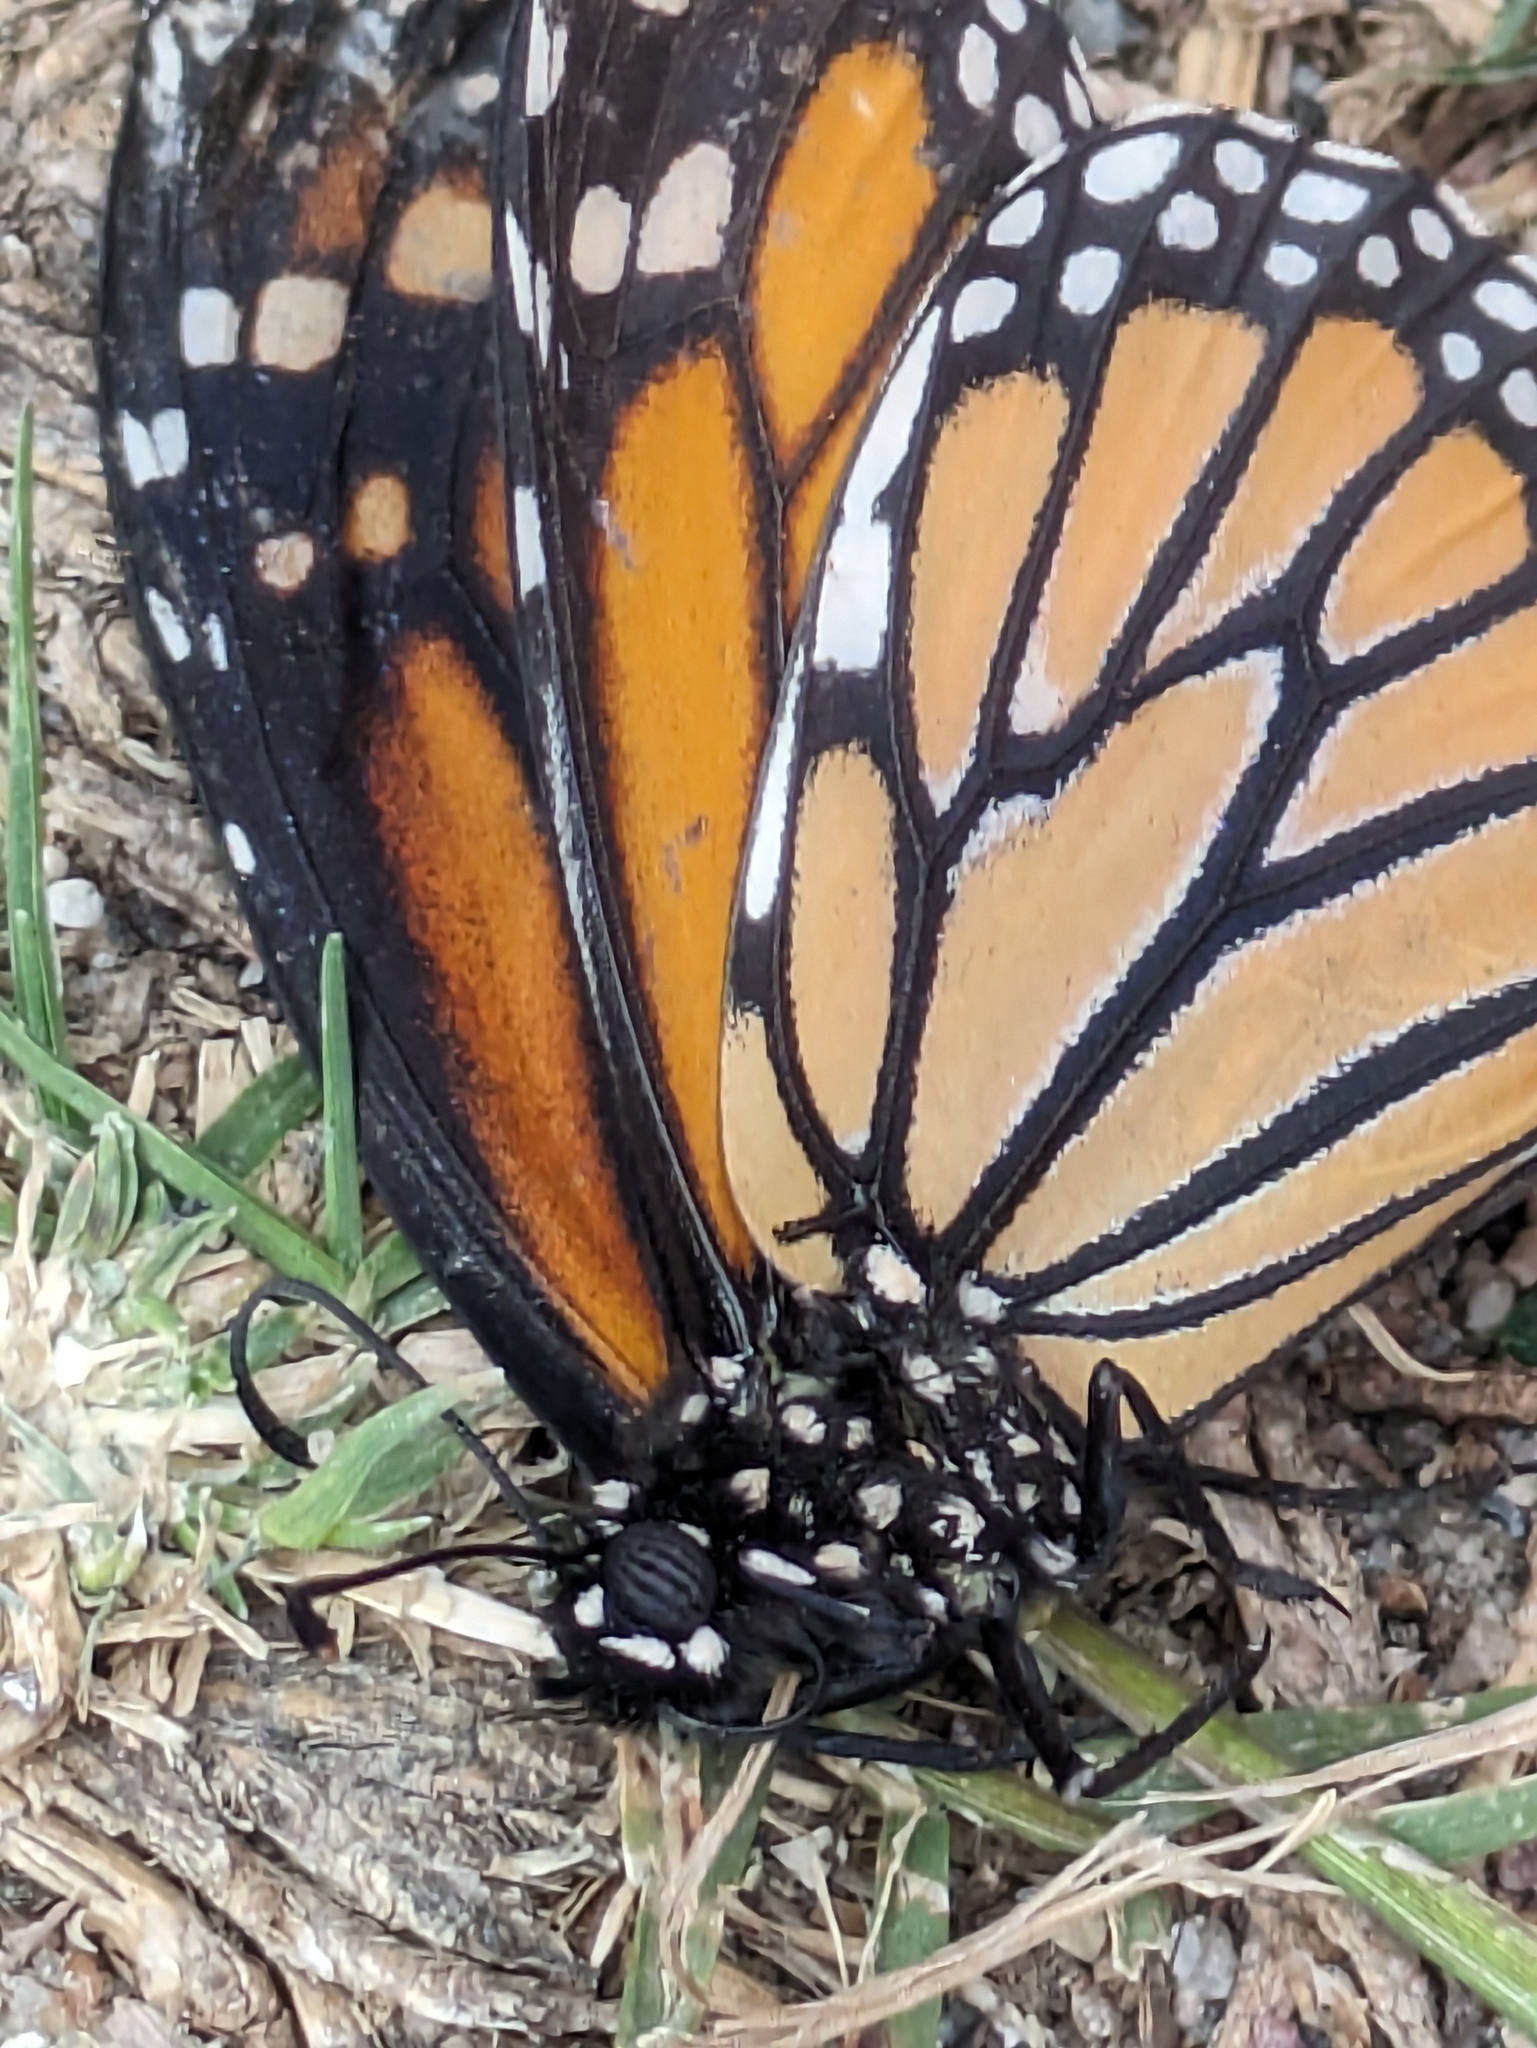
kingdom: Animalia
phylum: Arthropoda
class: Insecta
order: Lepidoptera
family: Nymphalidae
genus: Danaus
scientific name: Danaus plexippus
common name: Monarch
